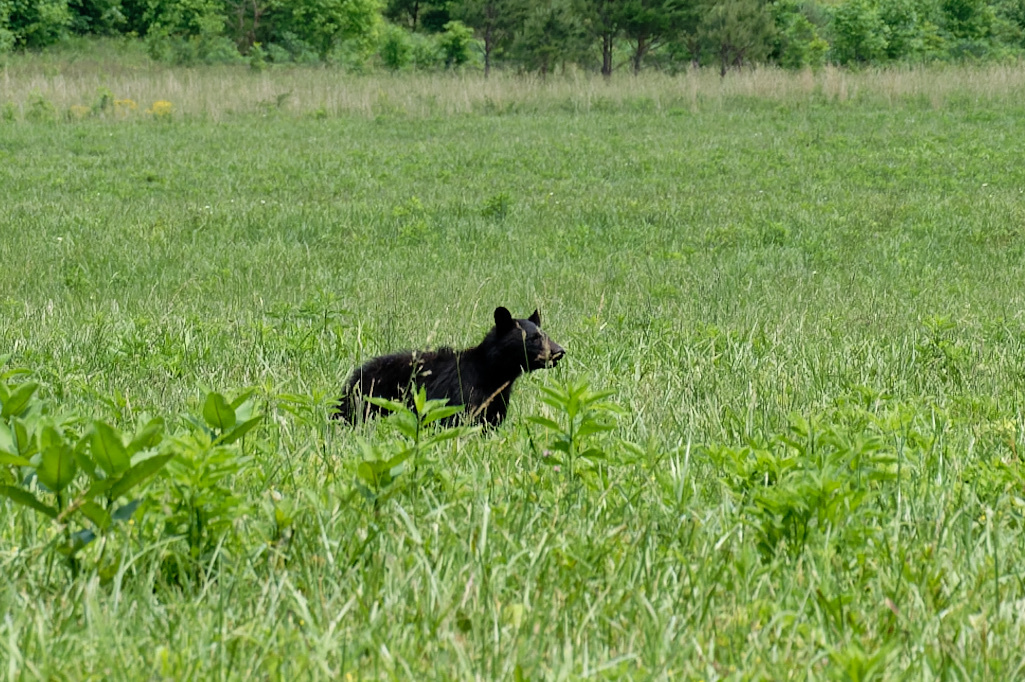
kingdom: Animalia
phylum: Chordata
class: Mammalia
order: Carnivora
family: Ursidae
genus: Ursus
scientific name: Ursus americanus
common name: American black bear
